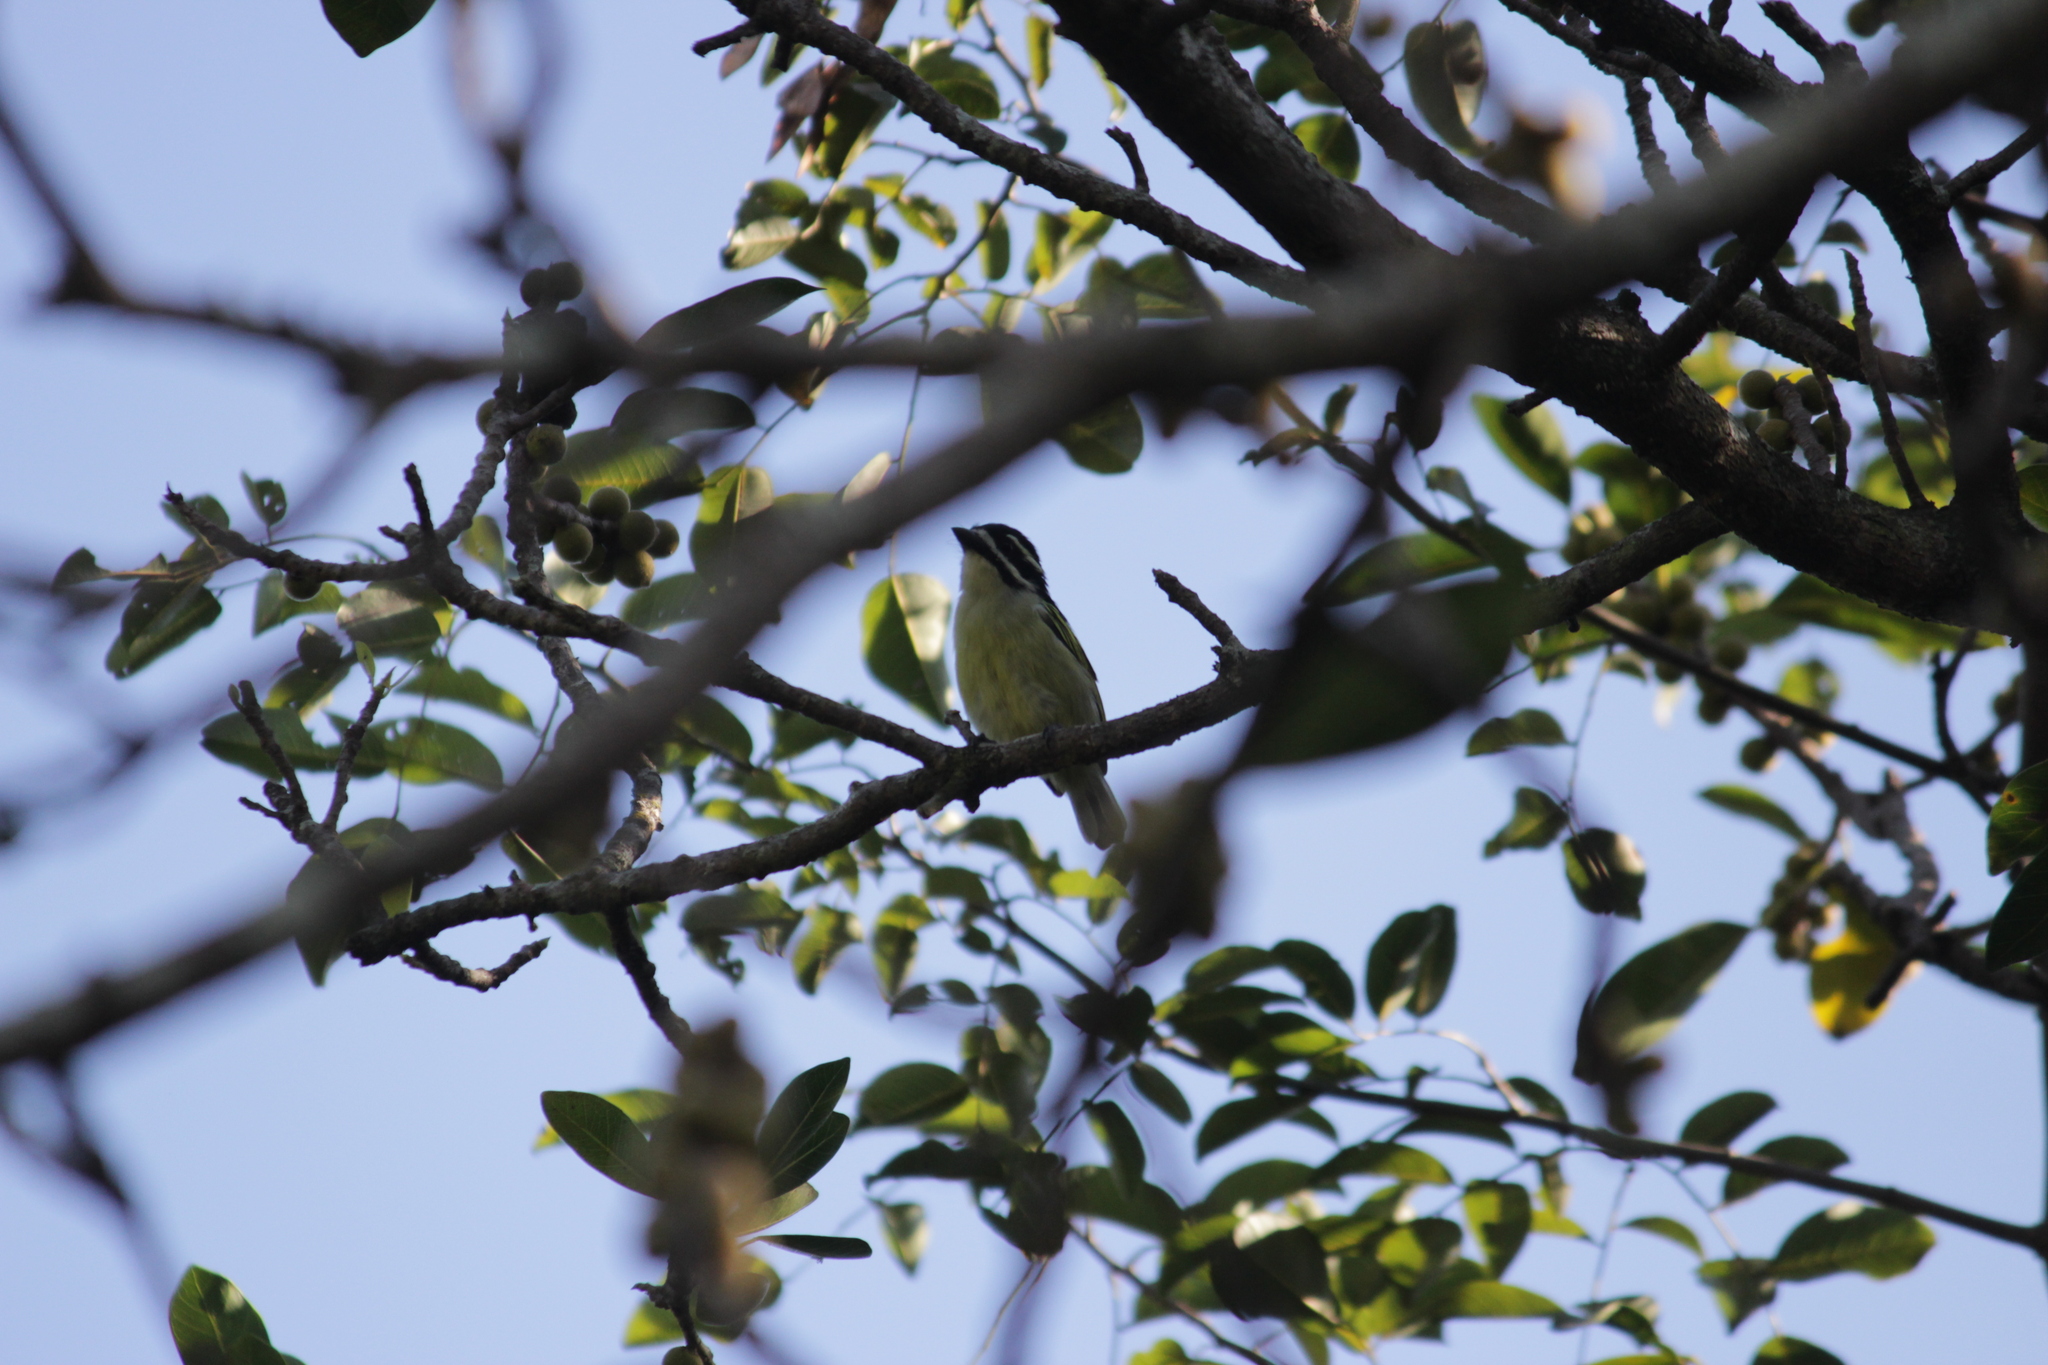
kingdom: Animalia
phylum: Chordata
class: Aves
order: Piciformes
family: Lybiidae
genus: Pogoniulus
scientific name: Pogoniulus bilineatus
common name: Yellow-rumped tinkerbird
